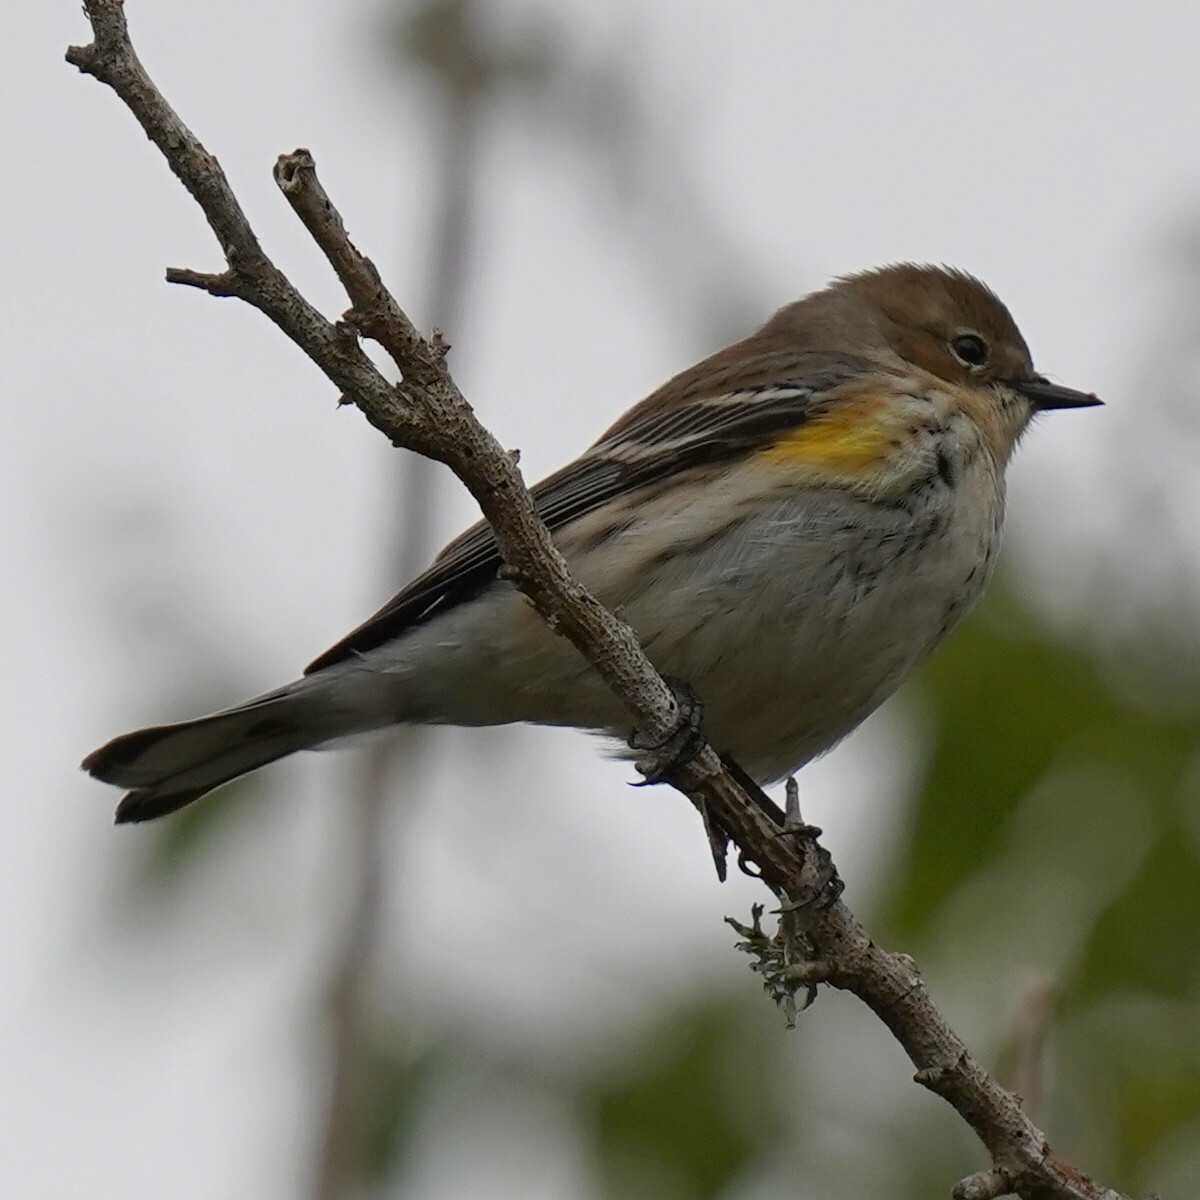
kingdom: Animalia
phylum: Chordata
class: Aves
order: Passeriformes
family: Parulidae
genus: Setophaga
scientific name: Setophaga coronata
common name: Myrtle warbler
